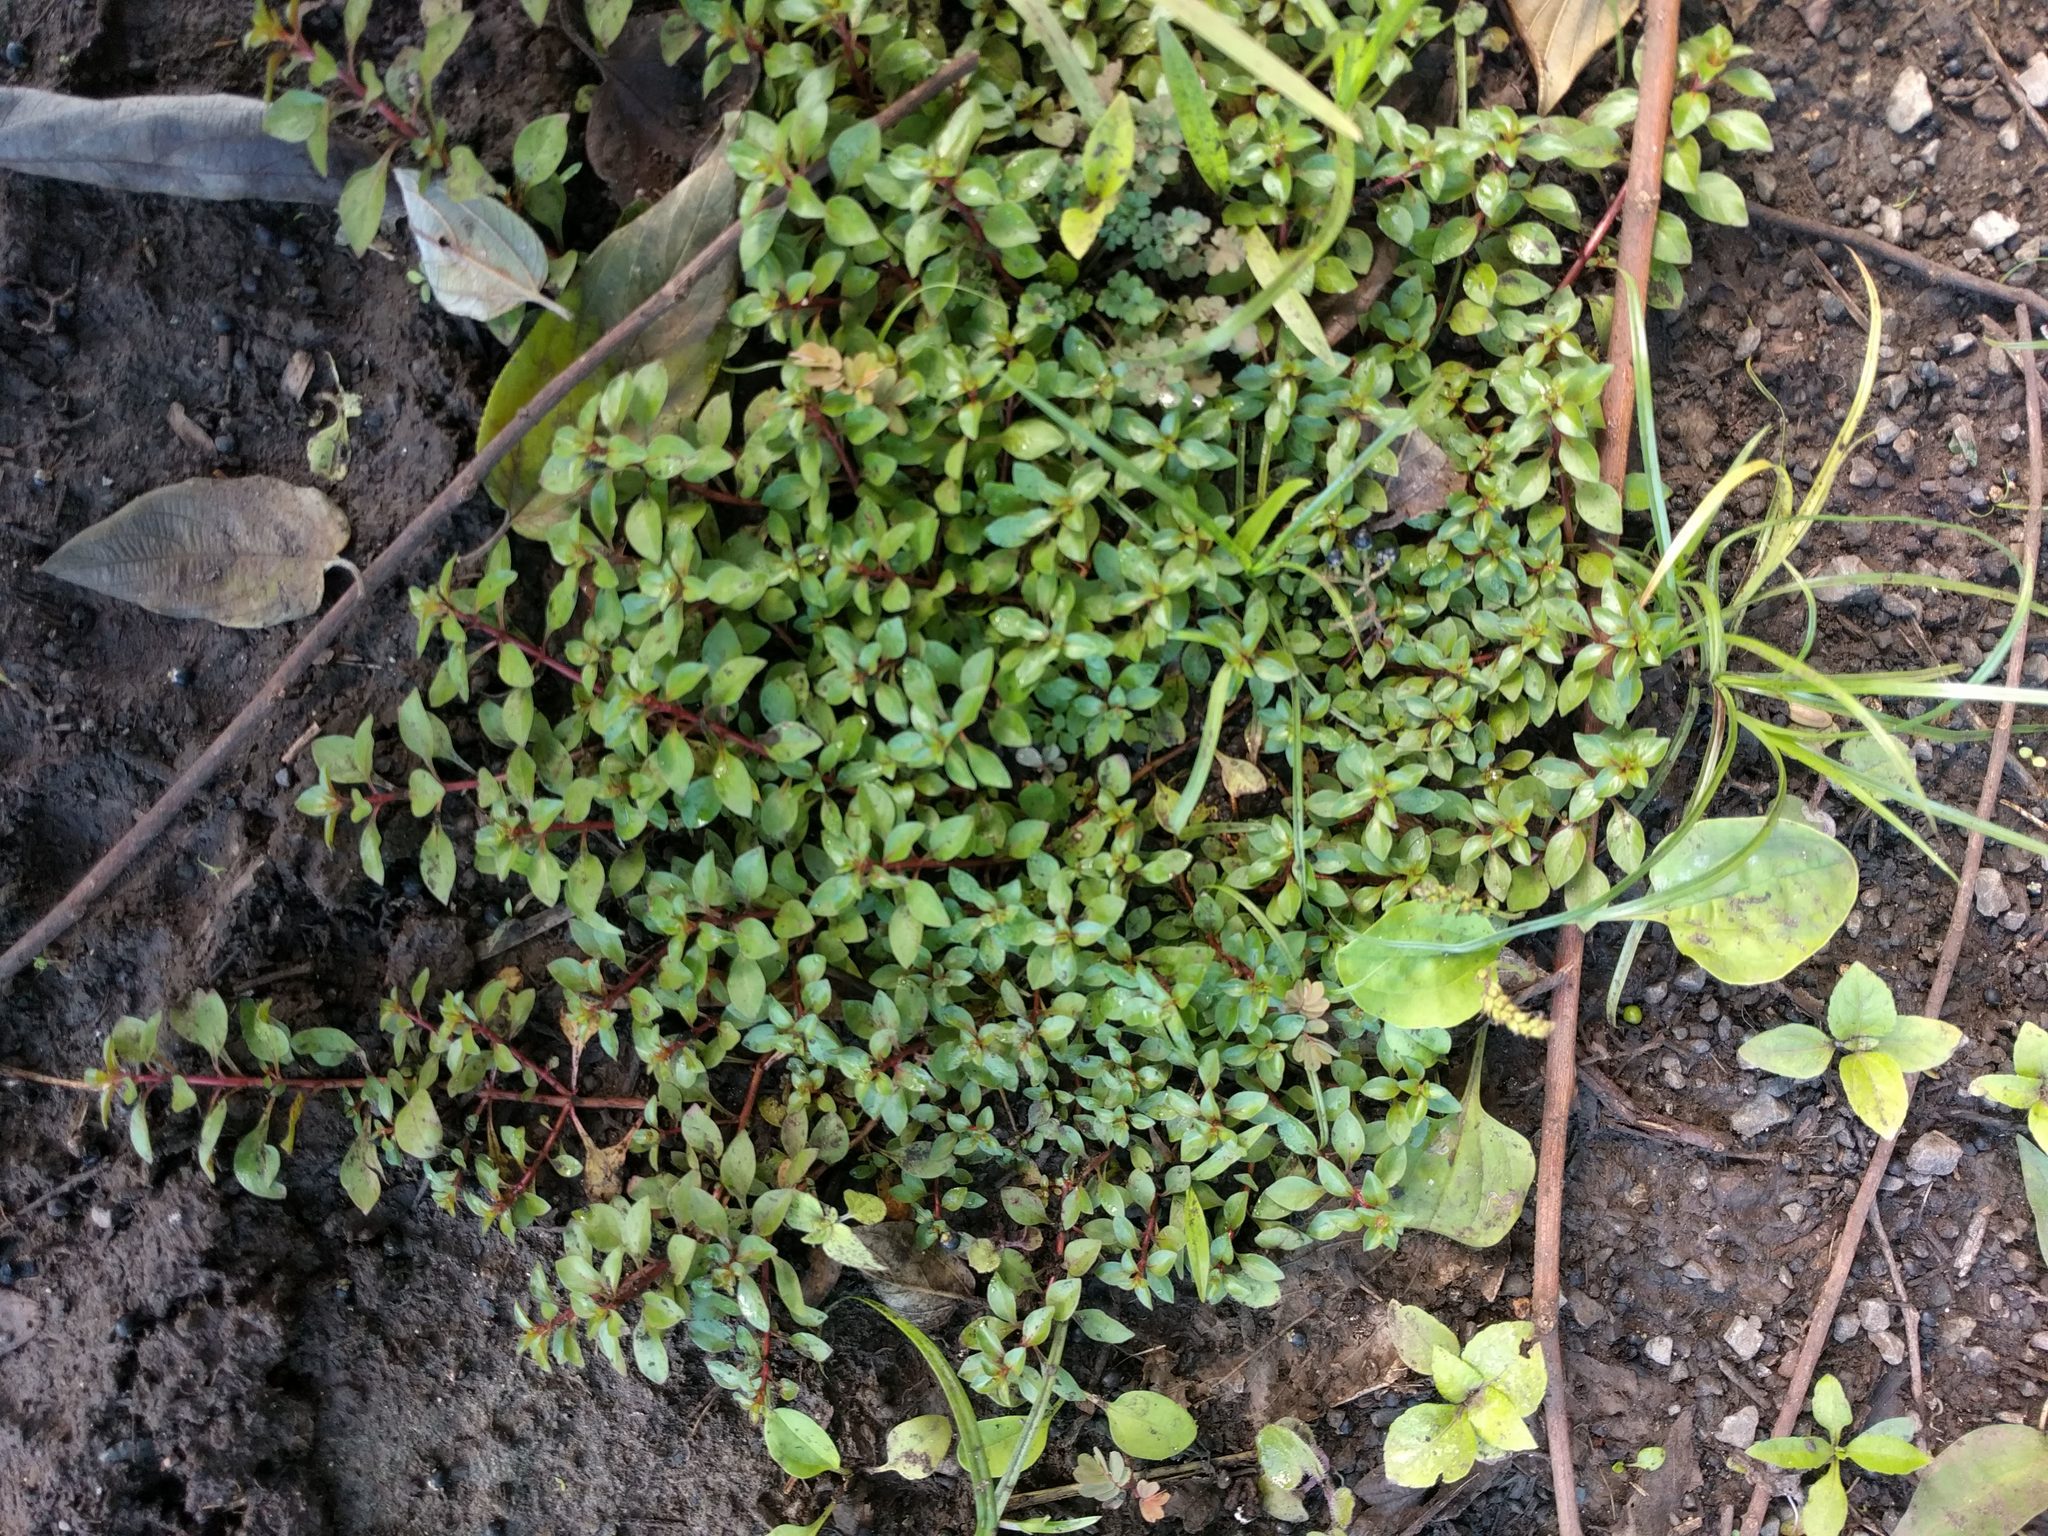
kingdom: Plantae
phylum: Tracheophyta
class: Magnoliopsida
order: Myrtales
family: Onagraceae
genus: Ludwigia
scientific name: Ludwigia palustris
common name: Hampshire-purslane
